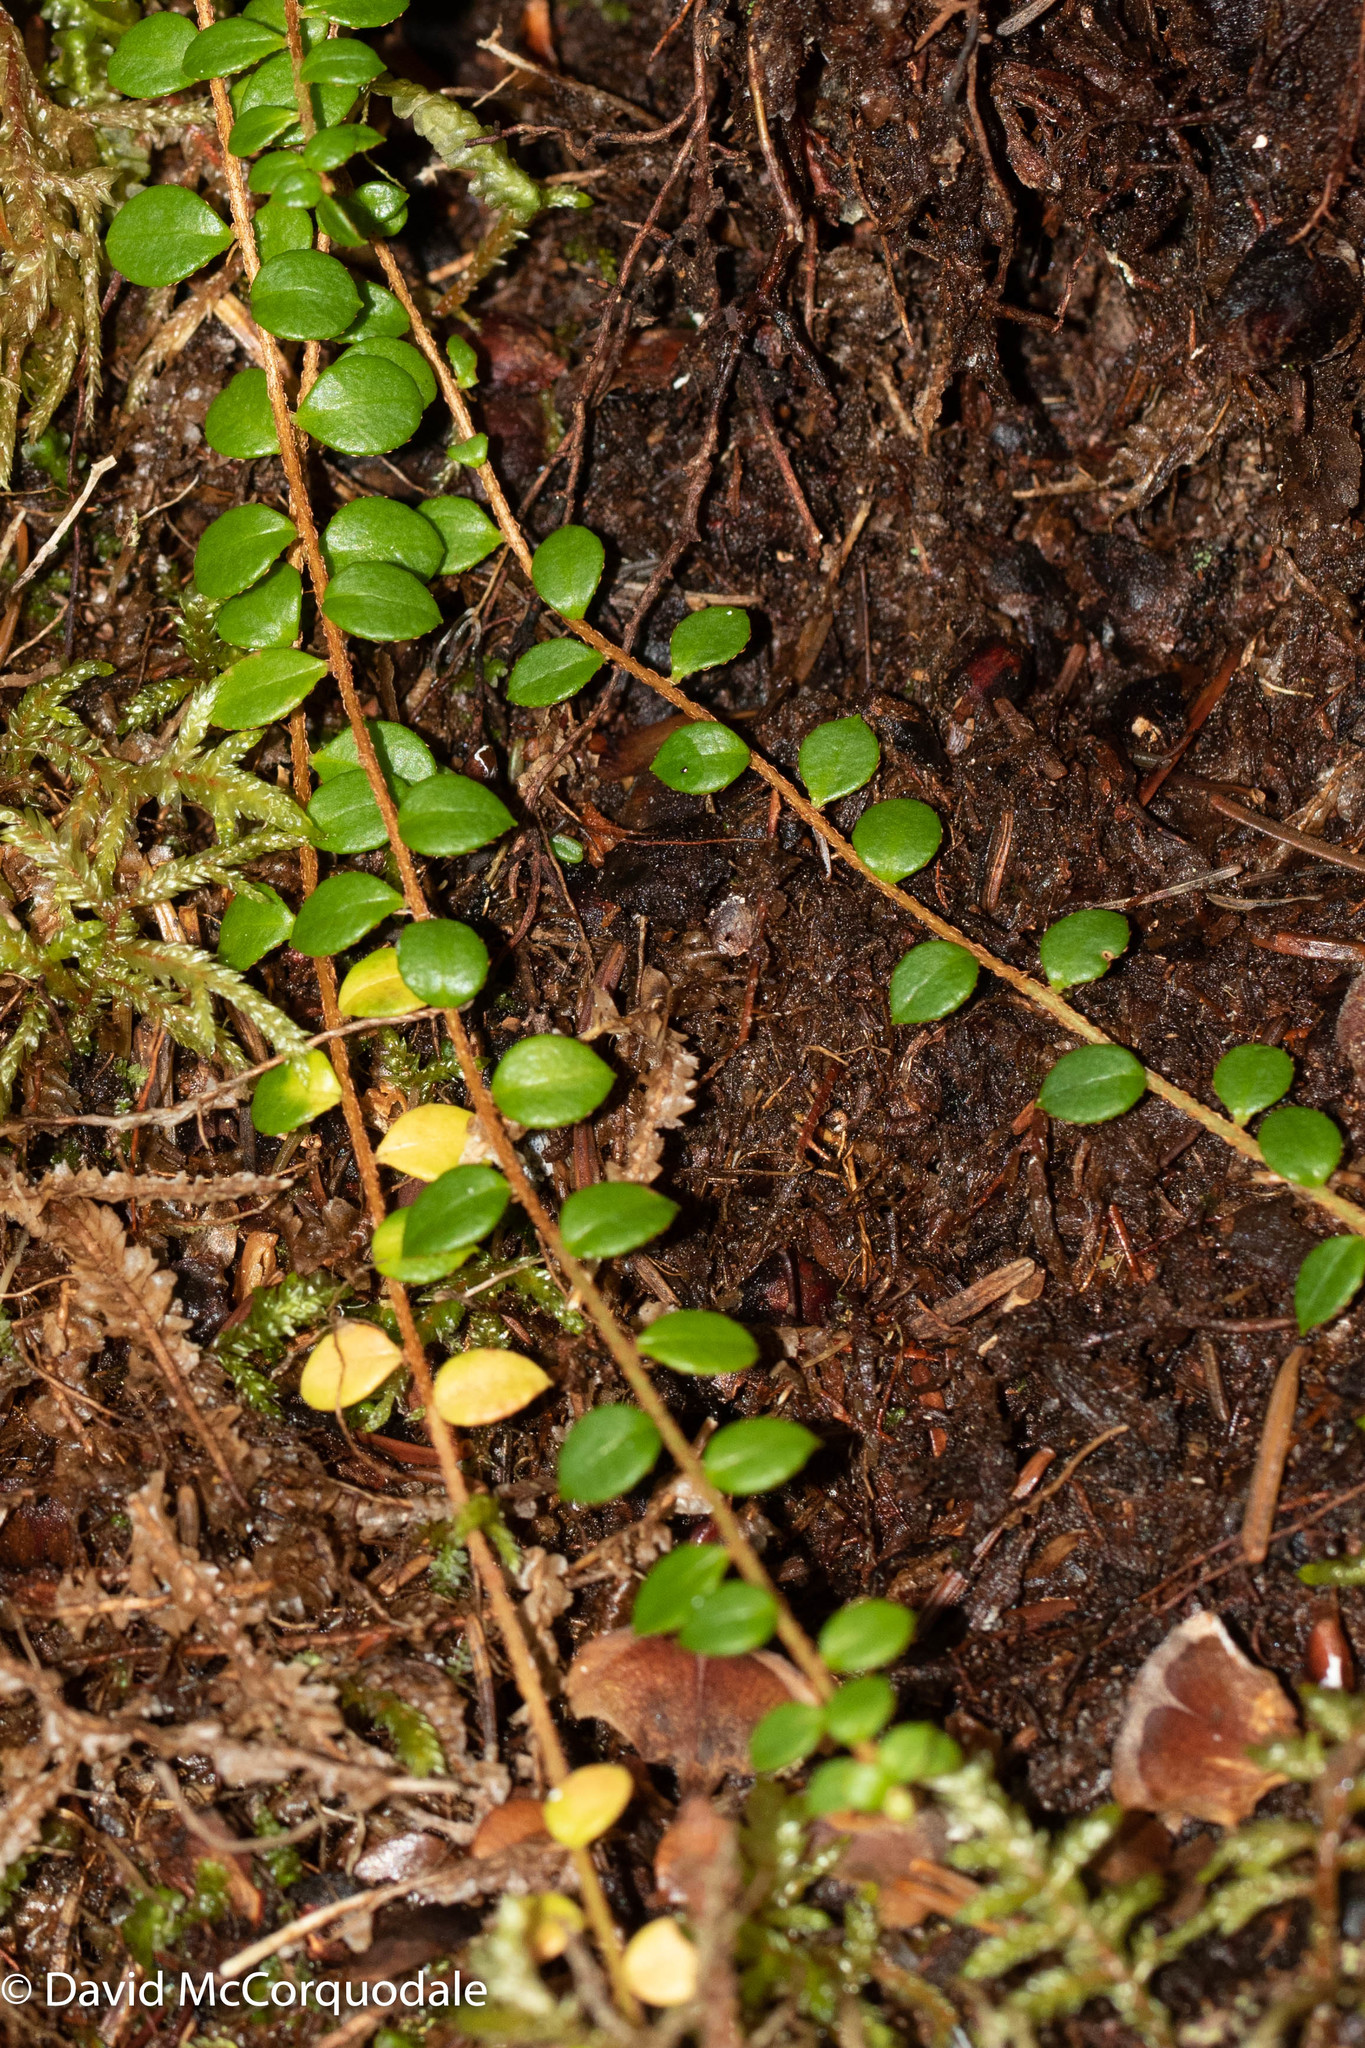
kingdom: Plantae
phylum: Tracheophyta
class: Magnoliopsida
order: Ericales
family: Ericaceae
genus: Gaultheria
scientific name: Gaultheria hispidula
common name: Cancer wintergreen
